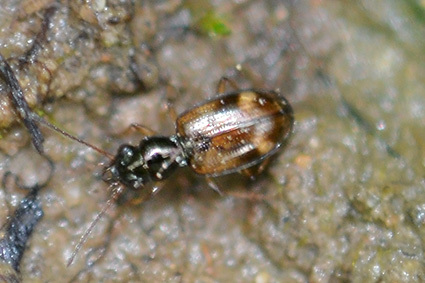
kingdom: Animalia
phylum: Arthropoda
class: Insecta
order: Coleoptera
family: Carabidae
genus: Bembidion
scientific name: Bembidion articulatum
